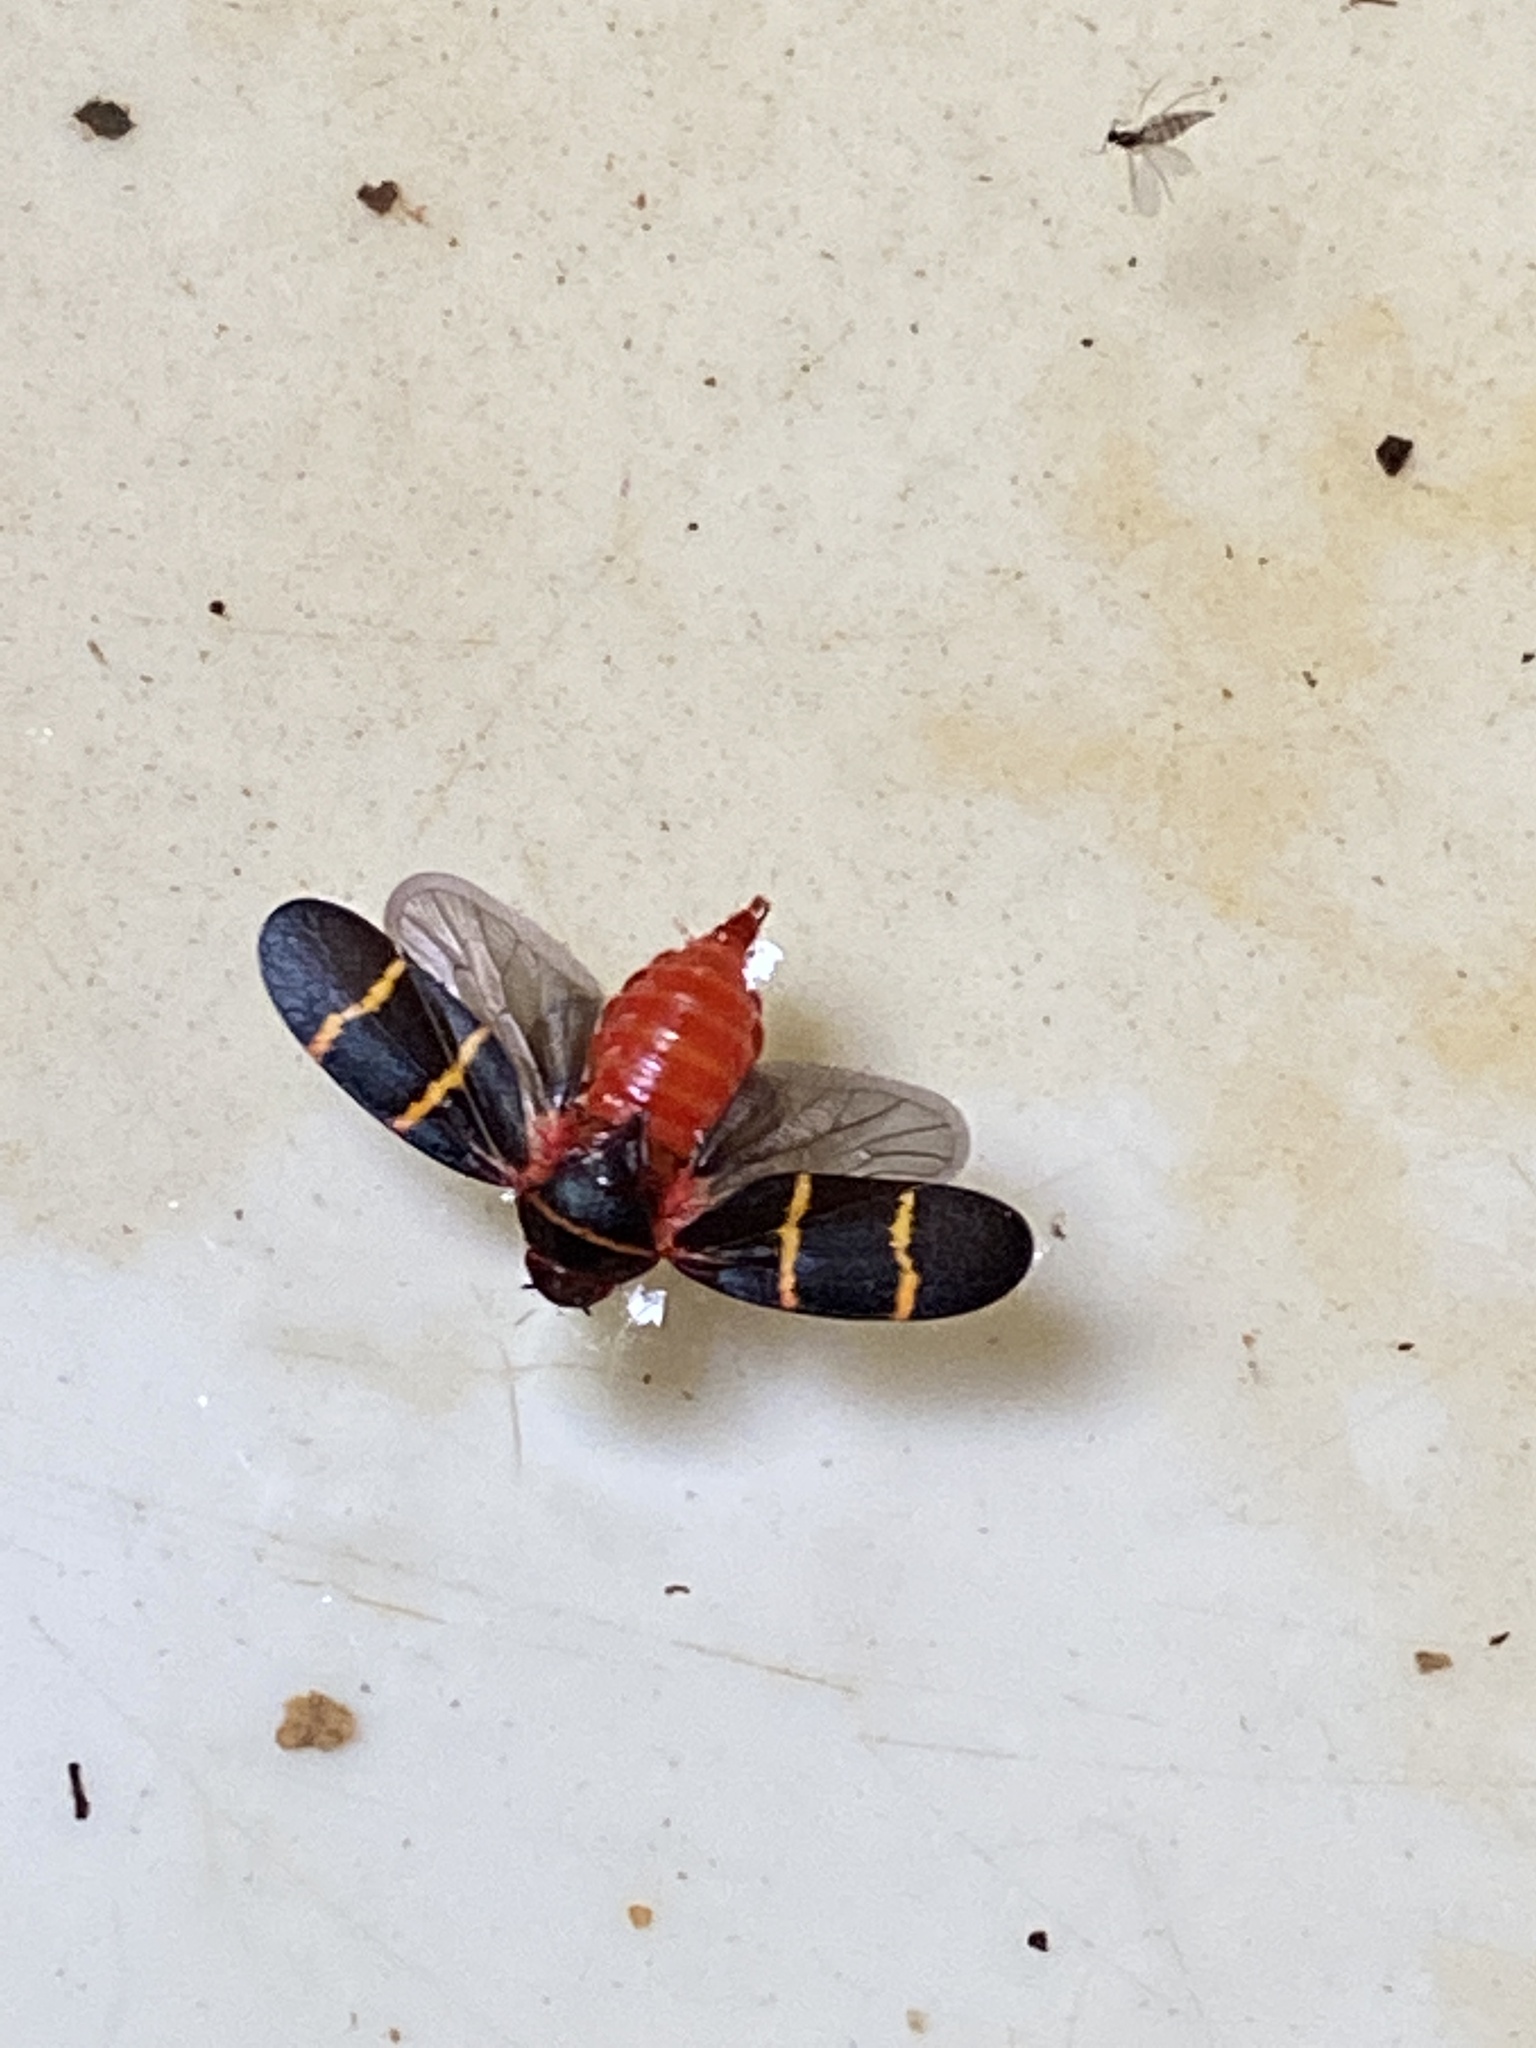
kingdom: Animalia
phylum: Arthropoda
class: Insecta
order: Hemiptera
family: Cercopidae
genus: Prosapia
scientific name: Prosapia bicincta
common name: Twolined spittlebug
